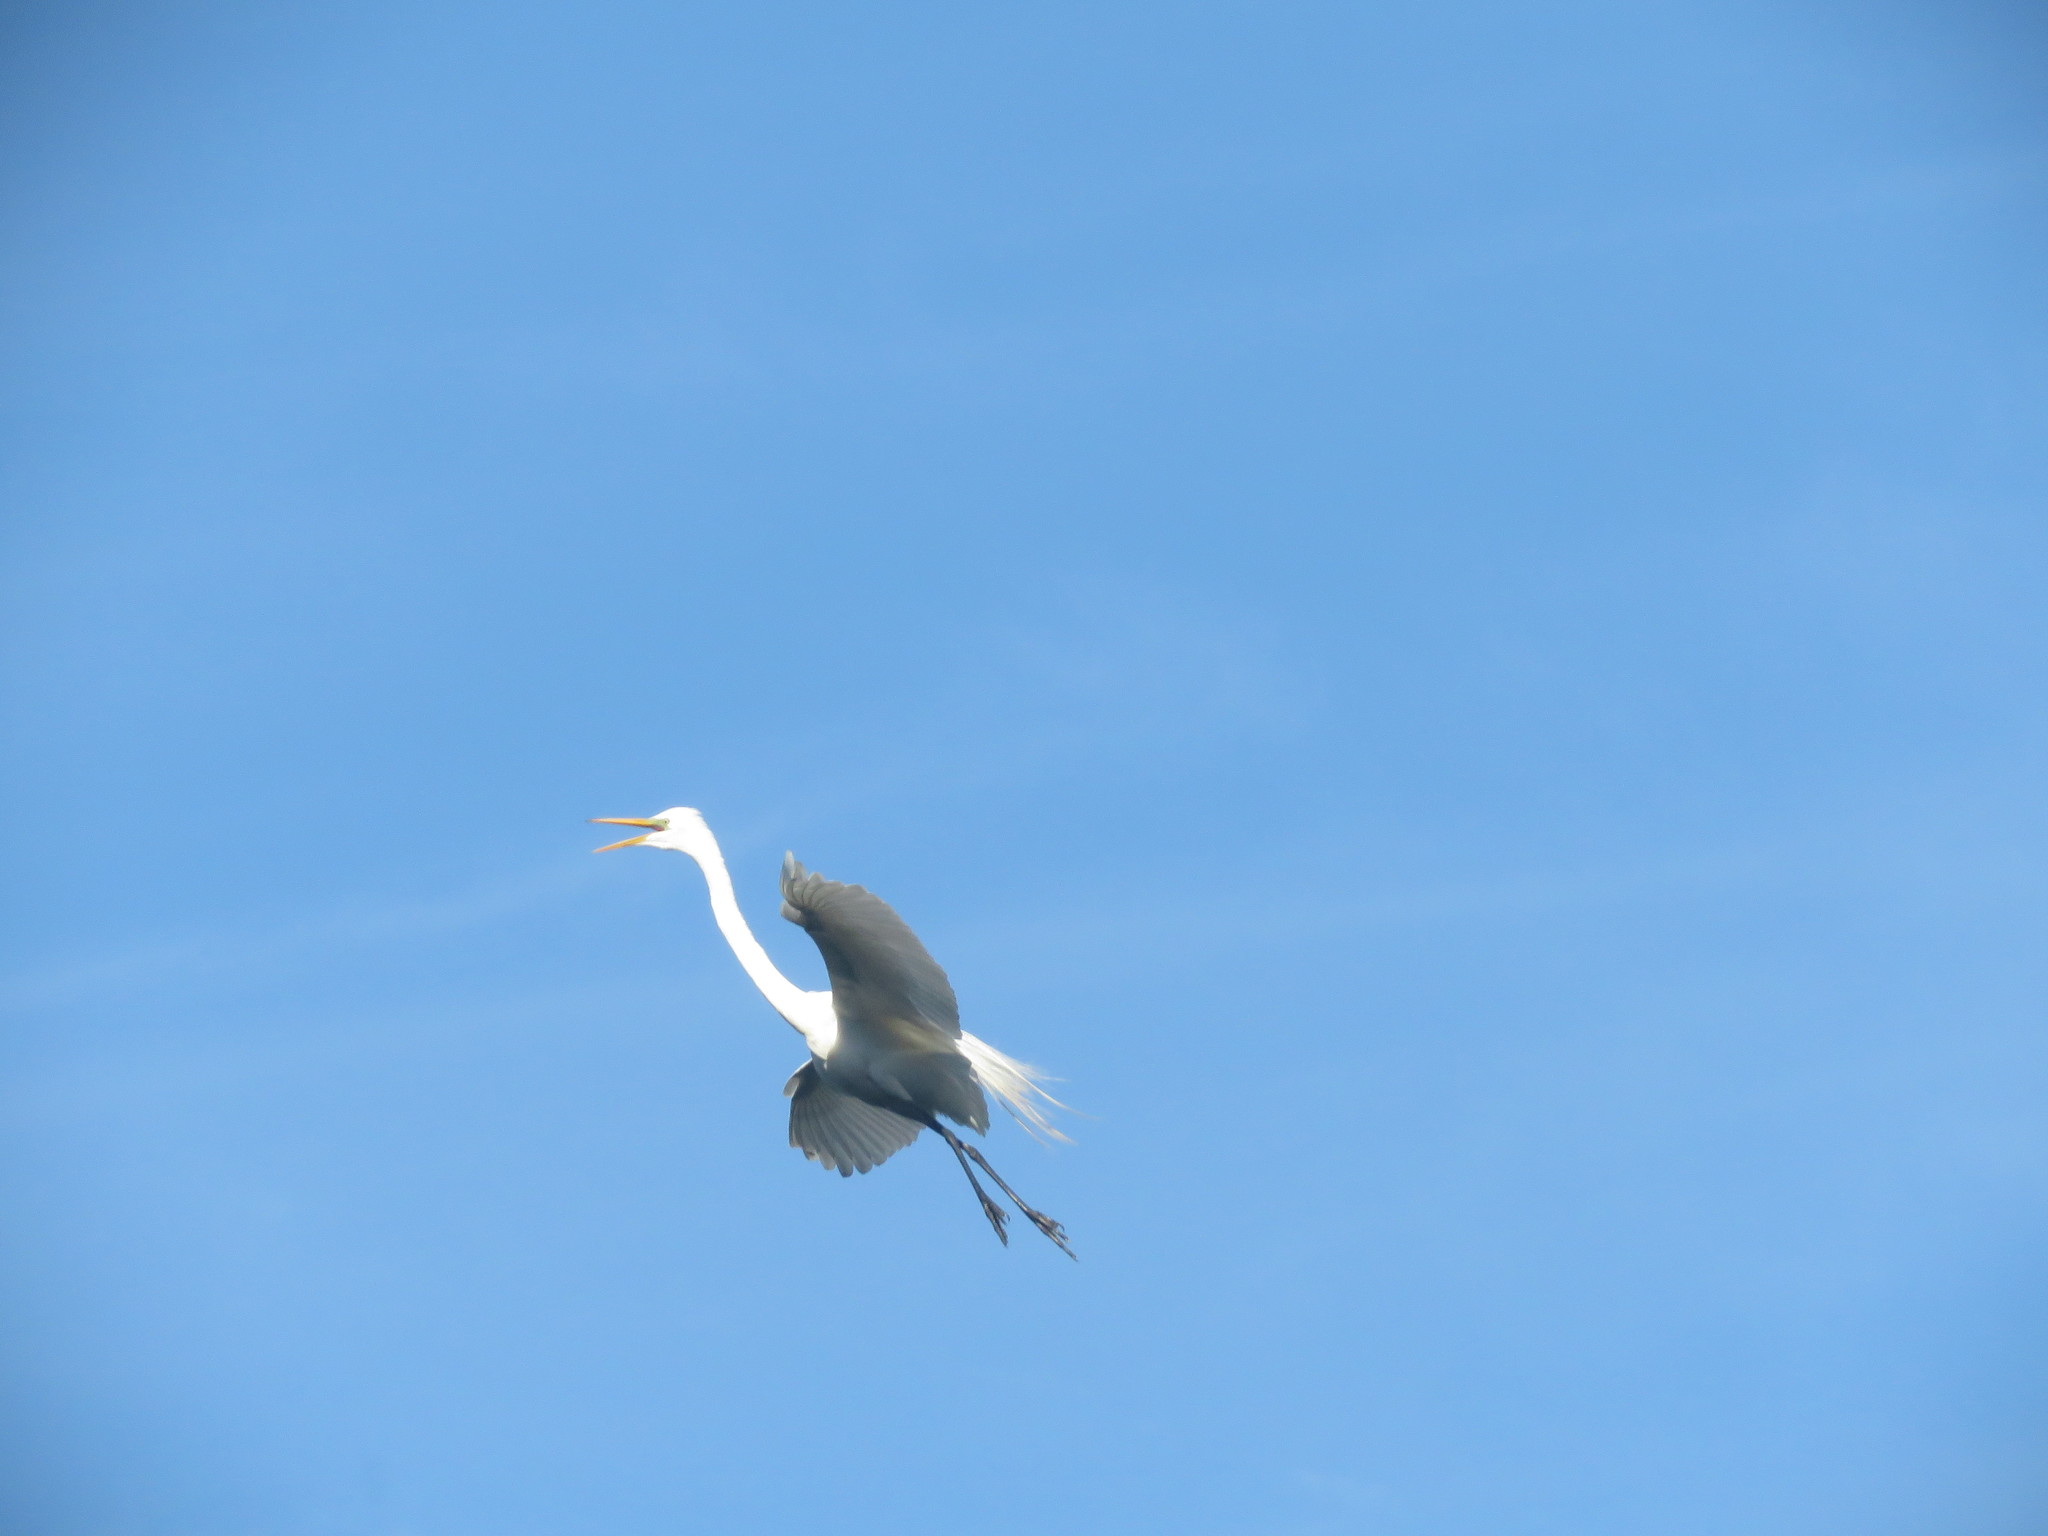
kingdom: Animalia
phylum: Chordata
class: Aves
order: Pelecaniformes
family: Ardeidae
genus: Ardea
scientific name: Ardea alba
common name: Great egret
